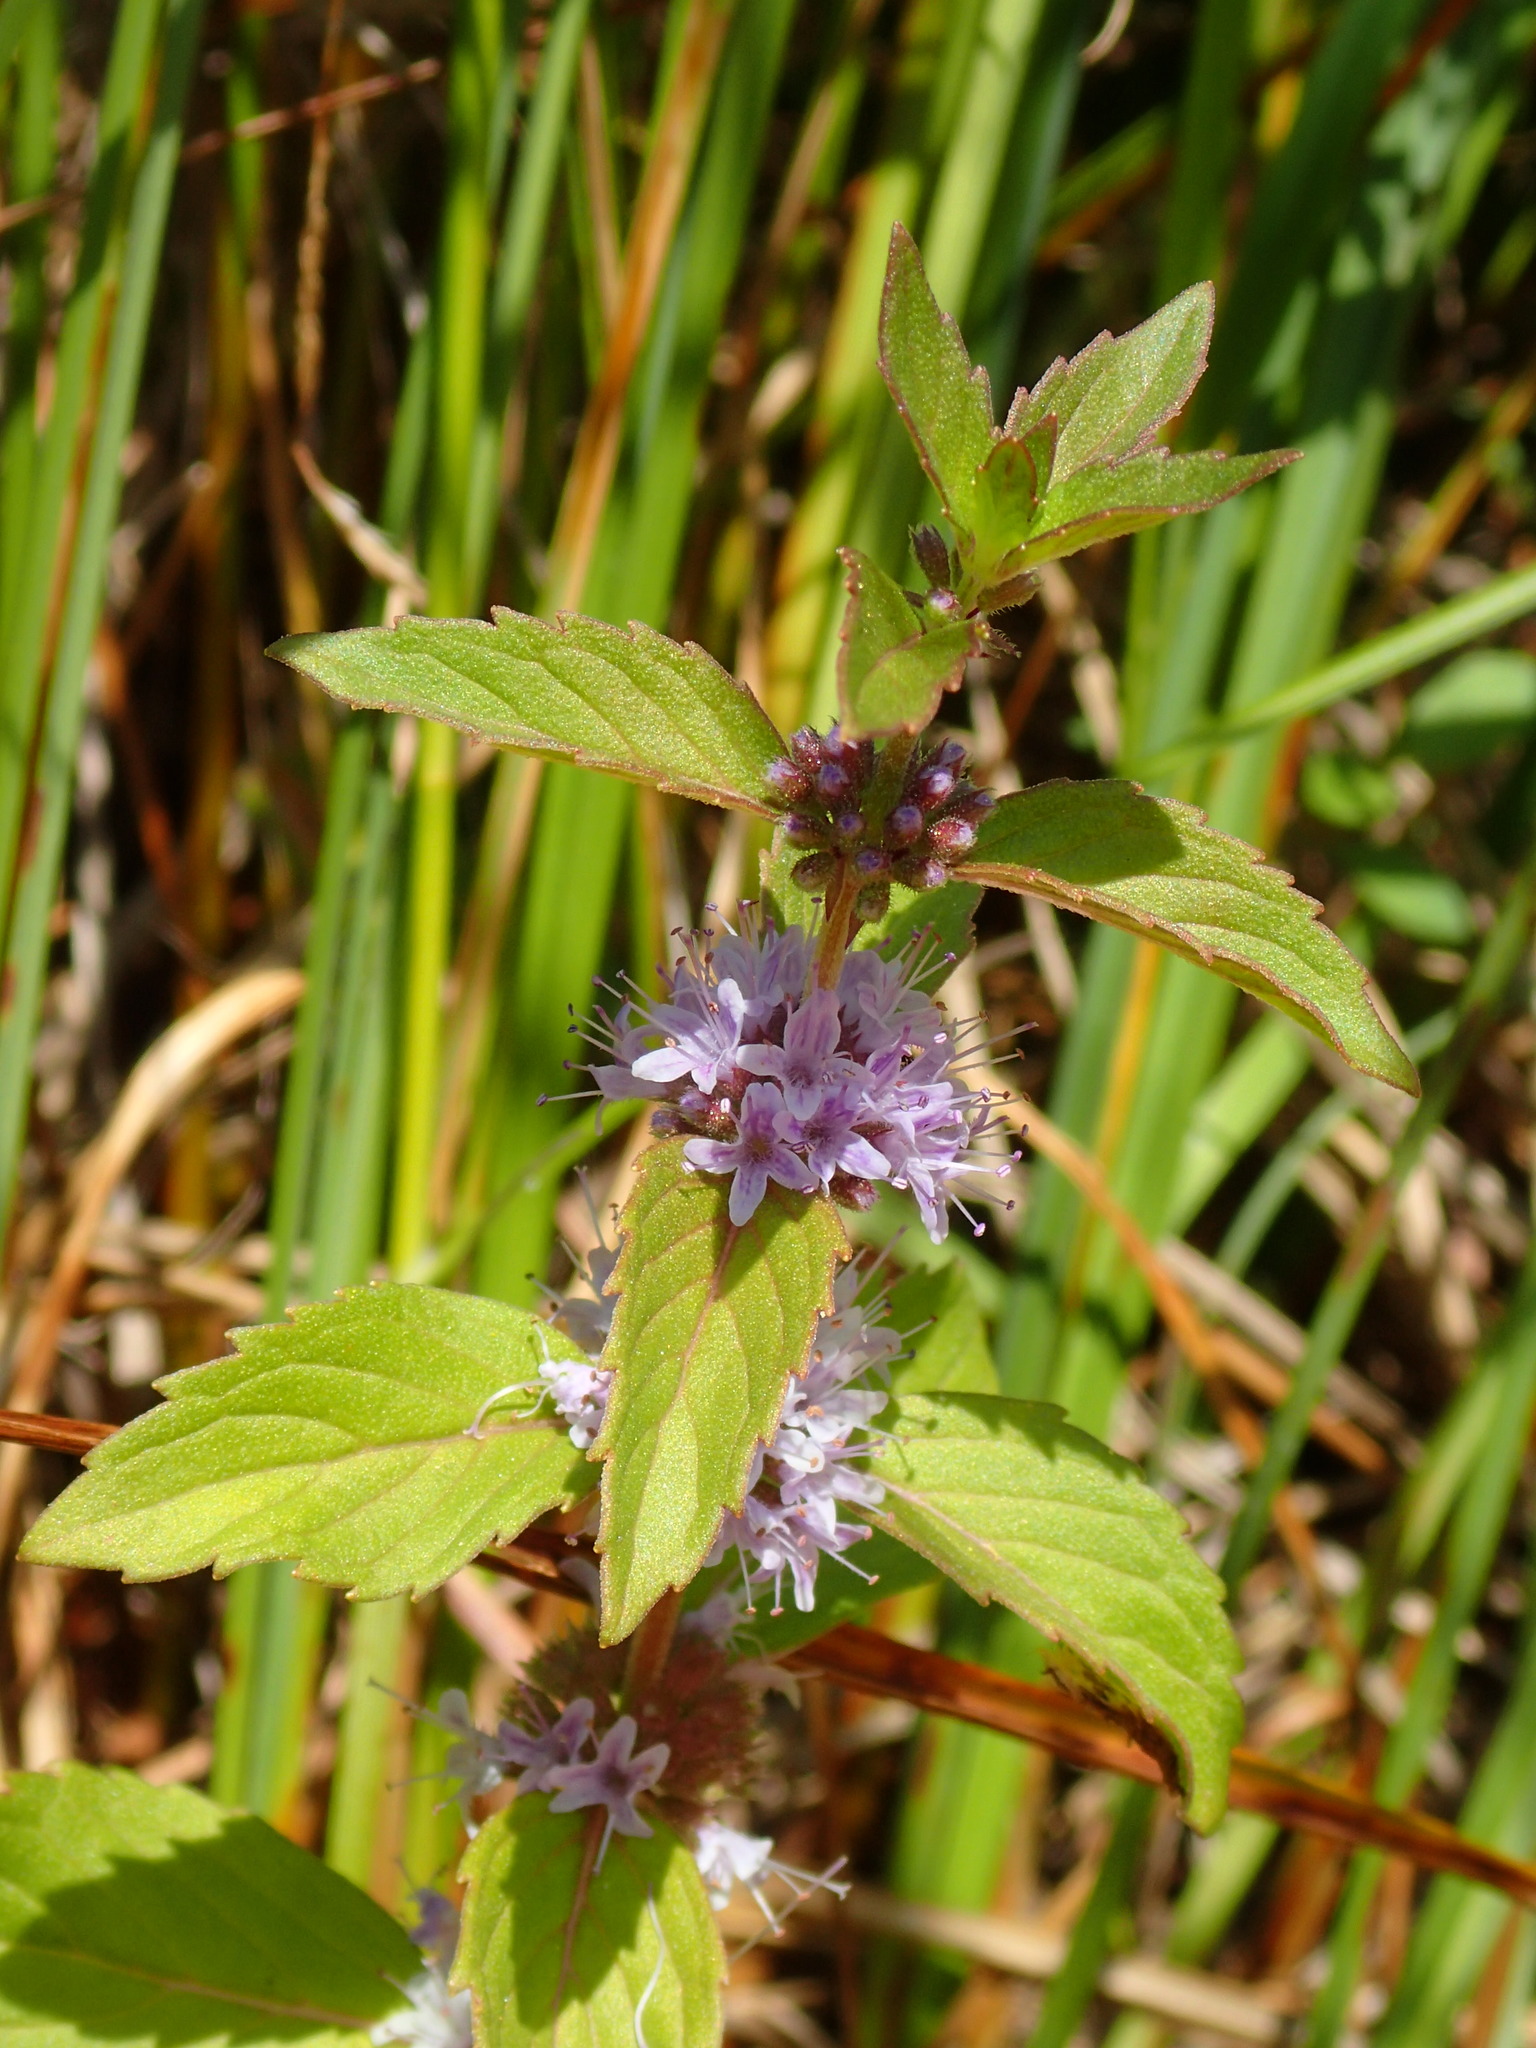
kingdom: Plantae
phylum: Tracheophyta
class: Magnoliopsida
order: Lamiales
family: Lamiaceae
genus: Mentha
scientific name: Mentha canadensis
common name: American corn mint
